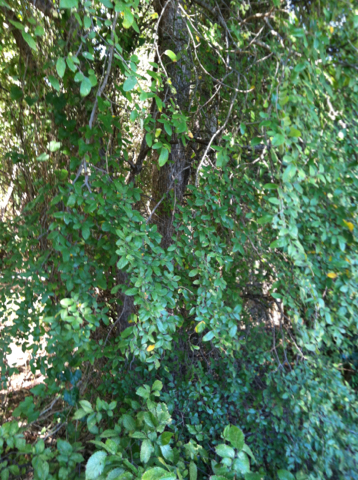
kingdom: Plantae
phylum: Tracheophyta
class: Magnoliopsida
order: Rosales
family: Ulmaceae
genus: Ulmus
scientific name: Ulmus crassifolia
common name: Basket elm
